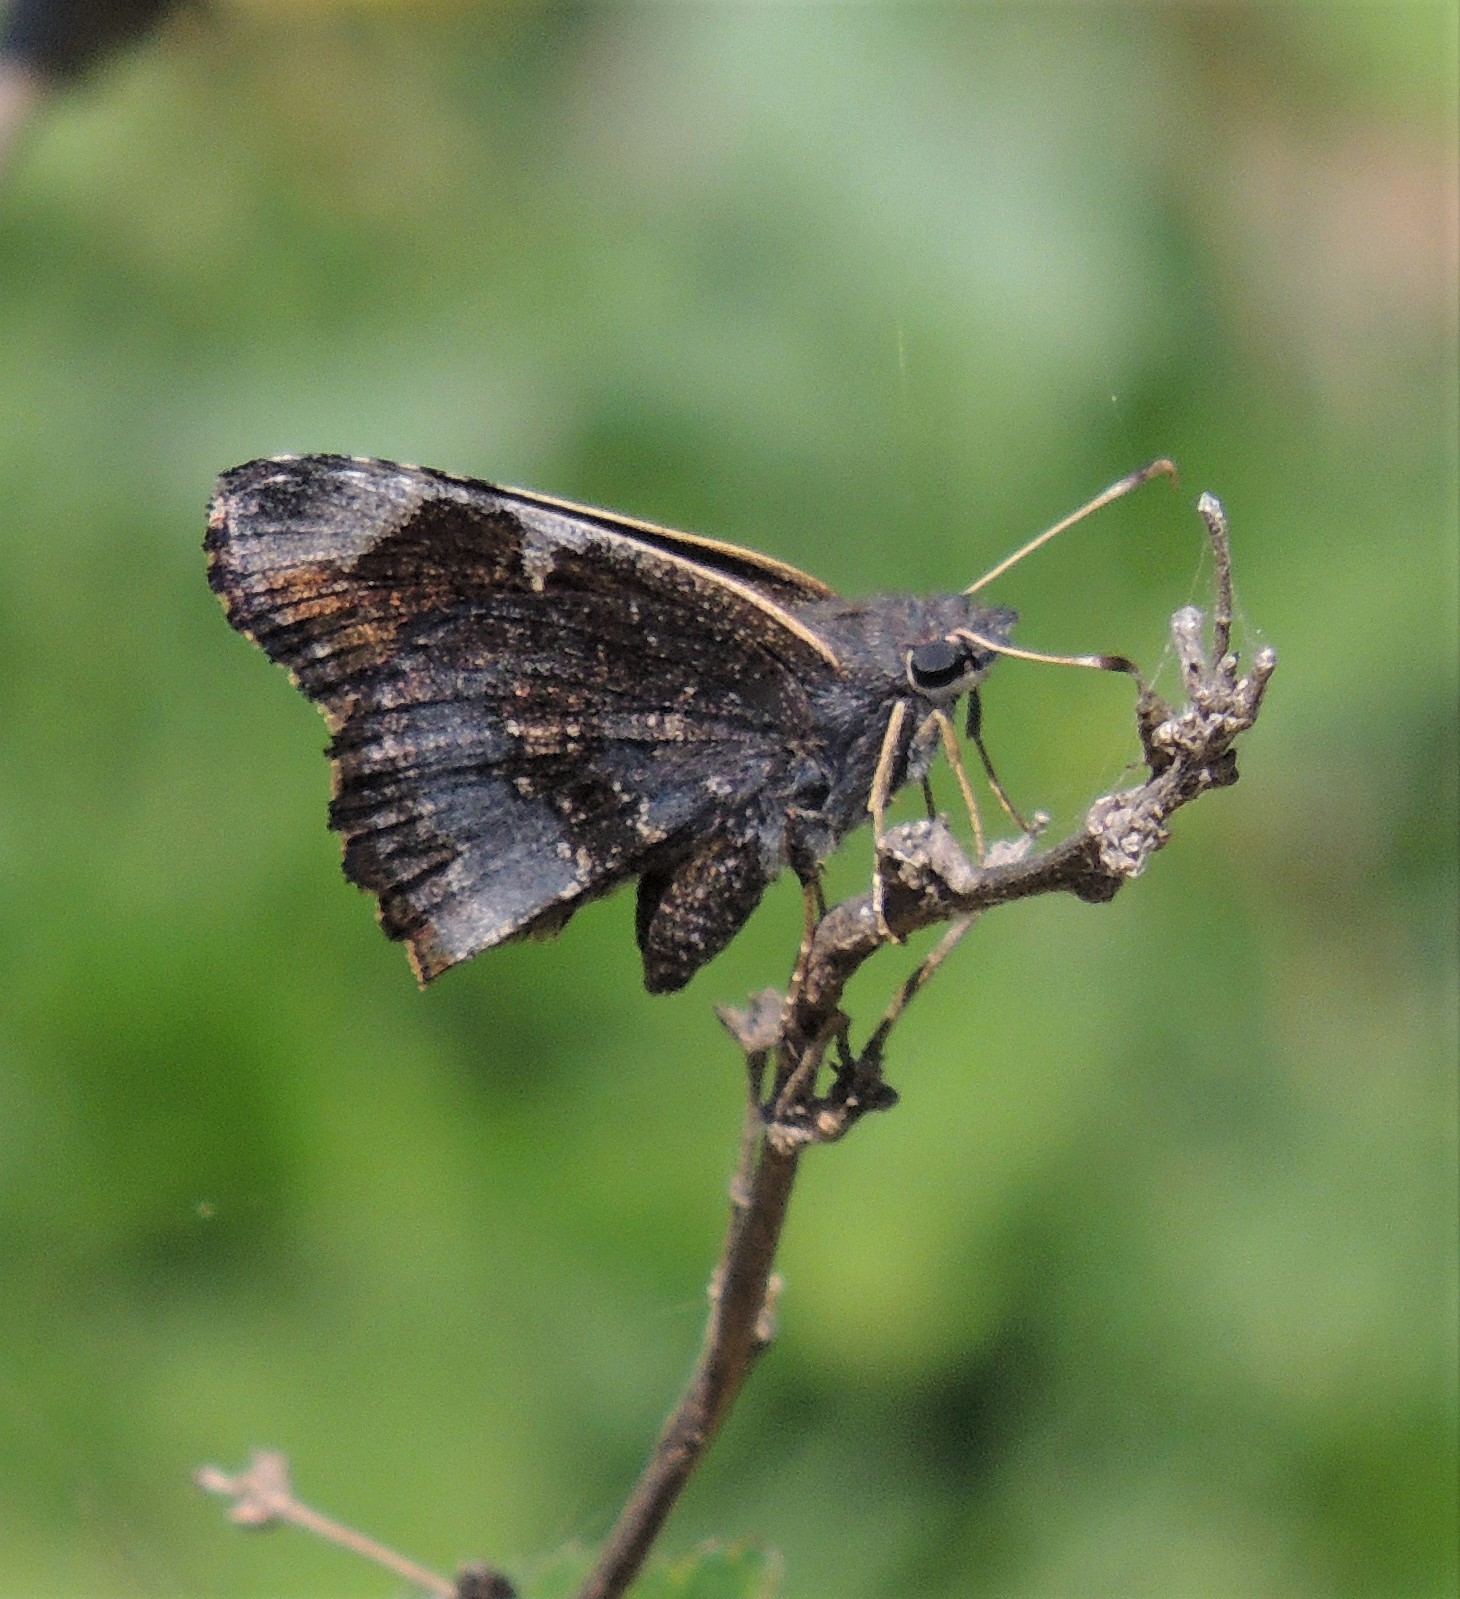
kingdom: Animalia
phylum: Arthropoda
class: Insecta
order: Lepidoptera
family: Hesperiidae
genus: Caicella
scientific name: Caicella calchas
